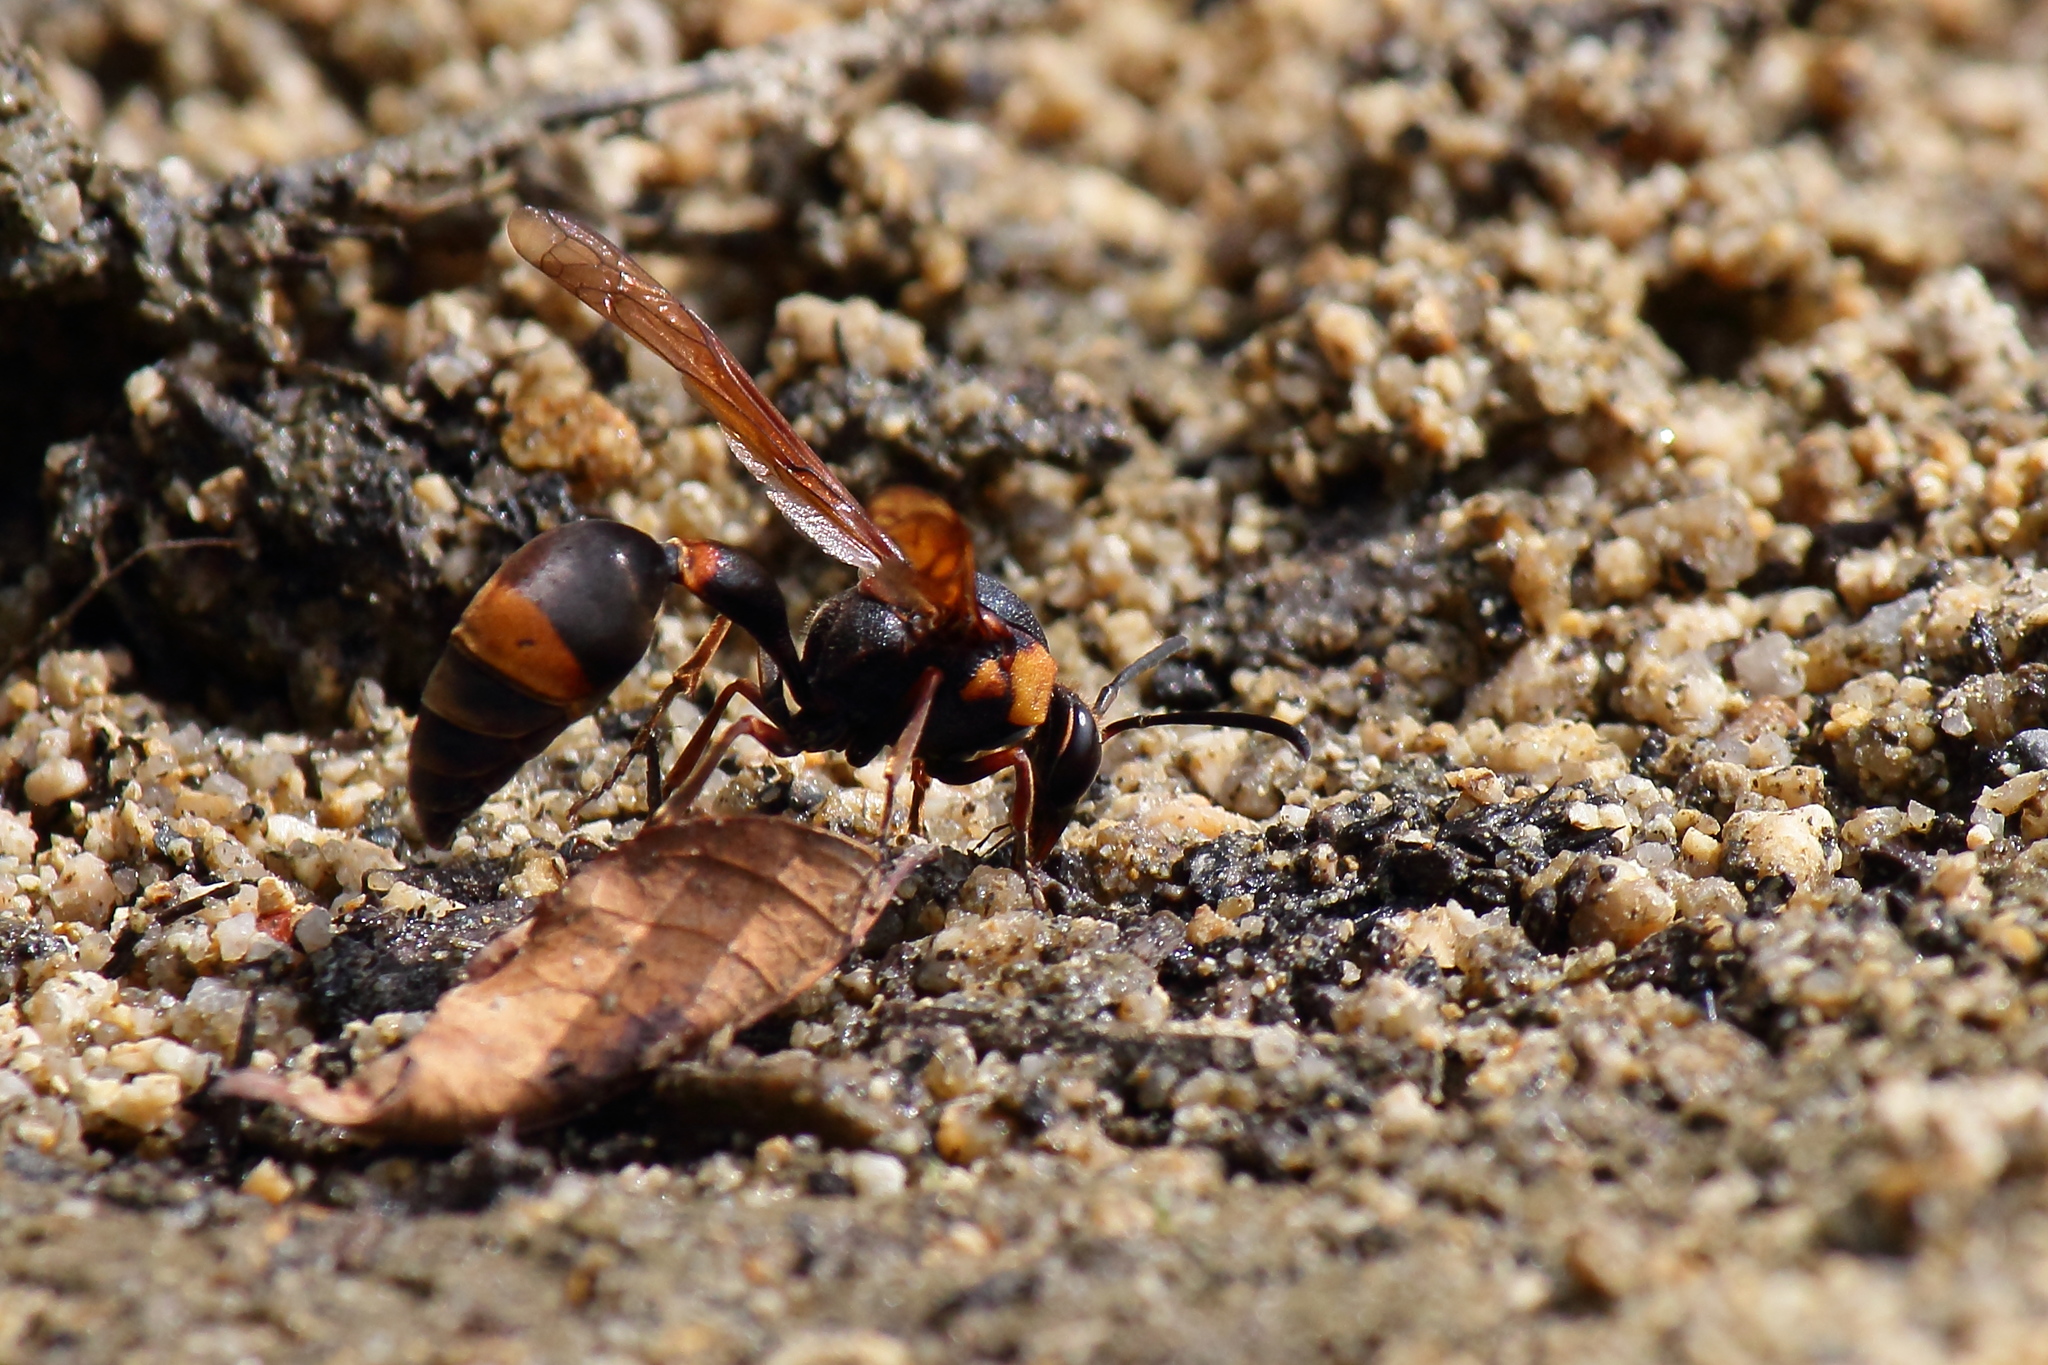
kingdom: Animalia
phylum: Arthropoda
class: Insecta
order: Hymenoptera
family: Eumenidae
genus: Oreumenes
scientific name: Oreumenes decoratus
